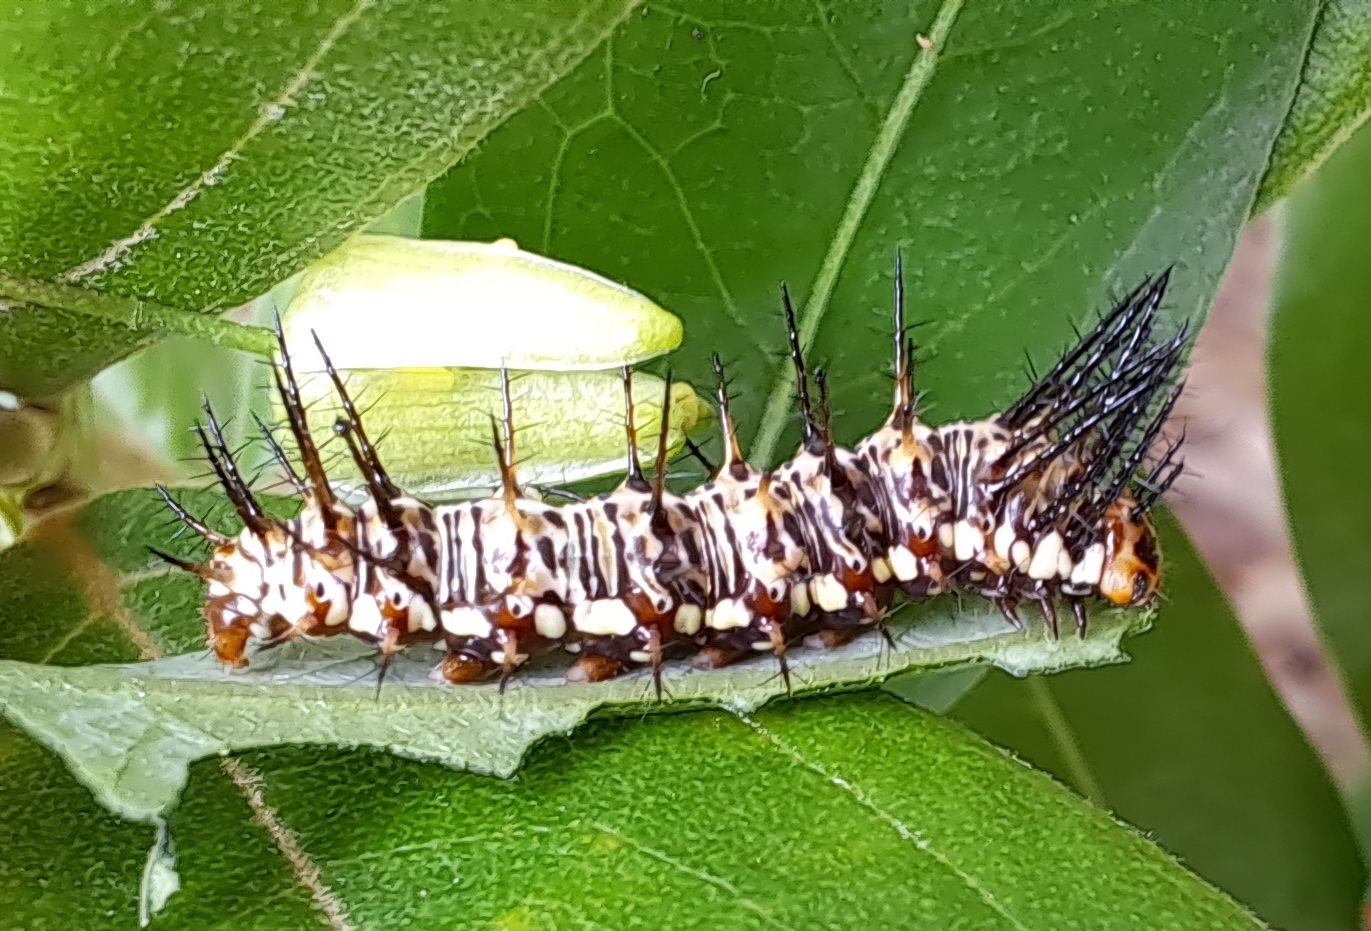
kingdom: Animalia
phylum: Arthropoda
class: Insecta
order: Lepidoptera
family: Nymphalidae
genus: Dryas
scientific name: Dryas iulia
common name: Flambeau
